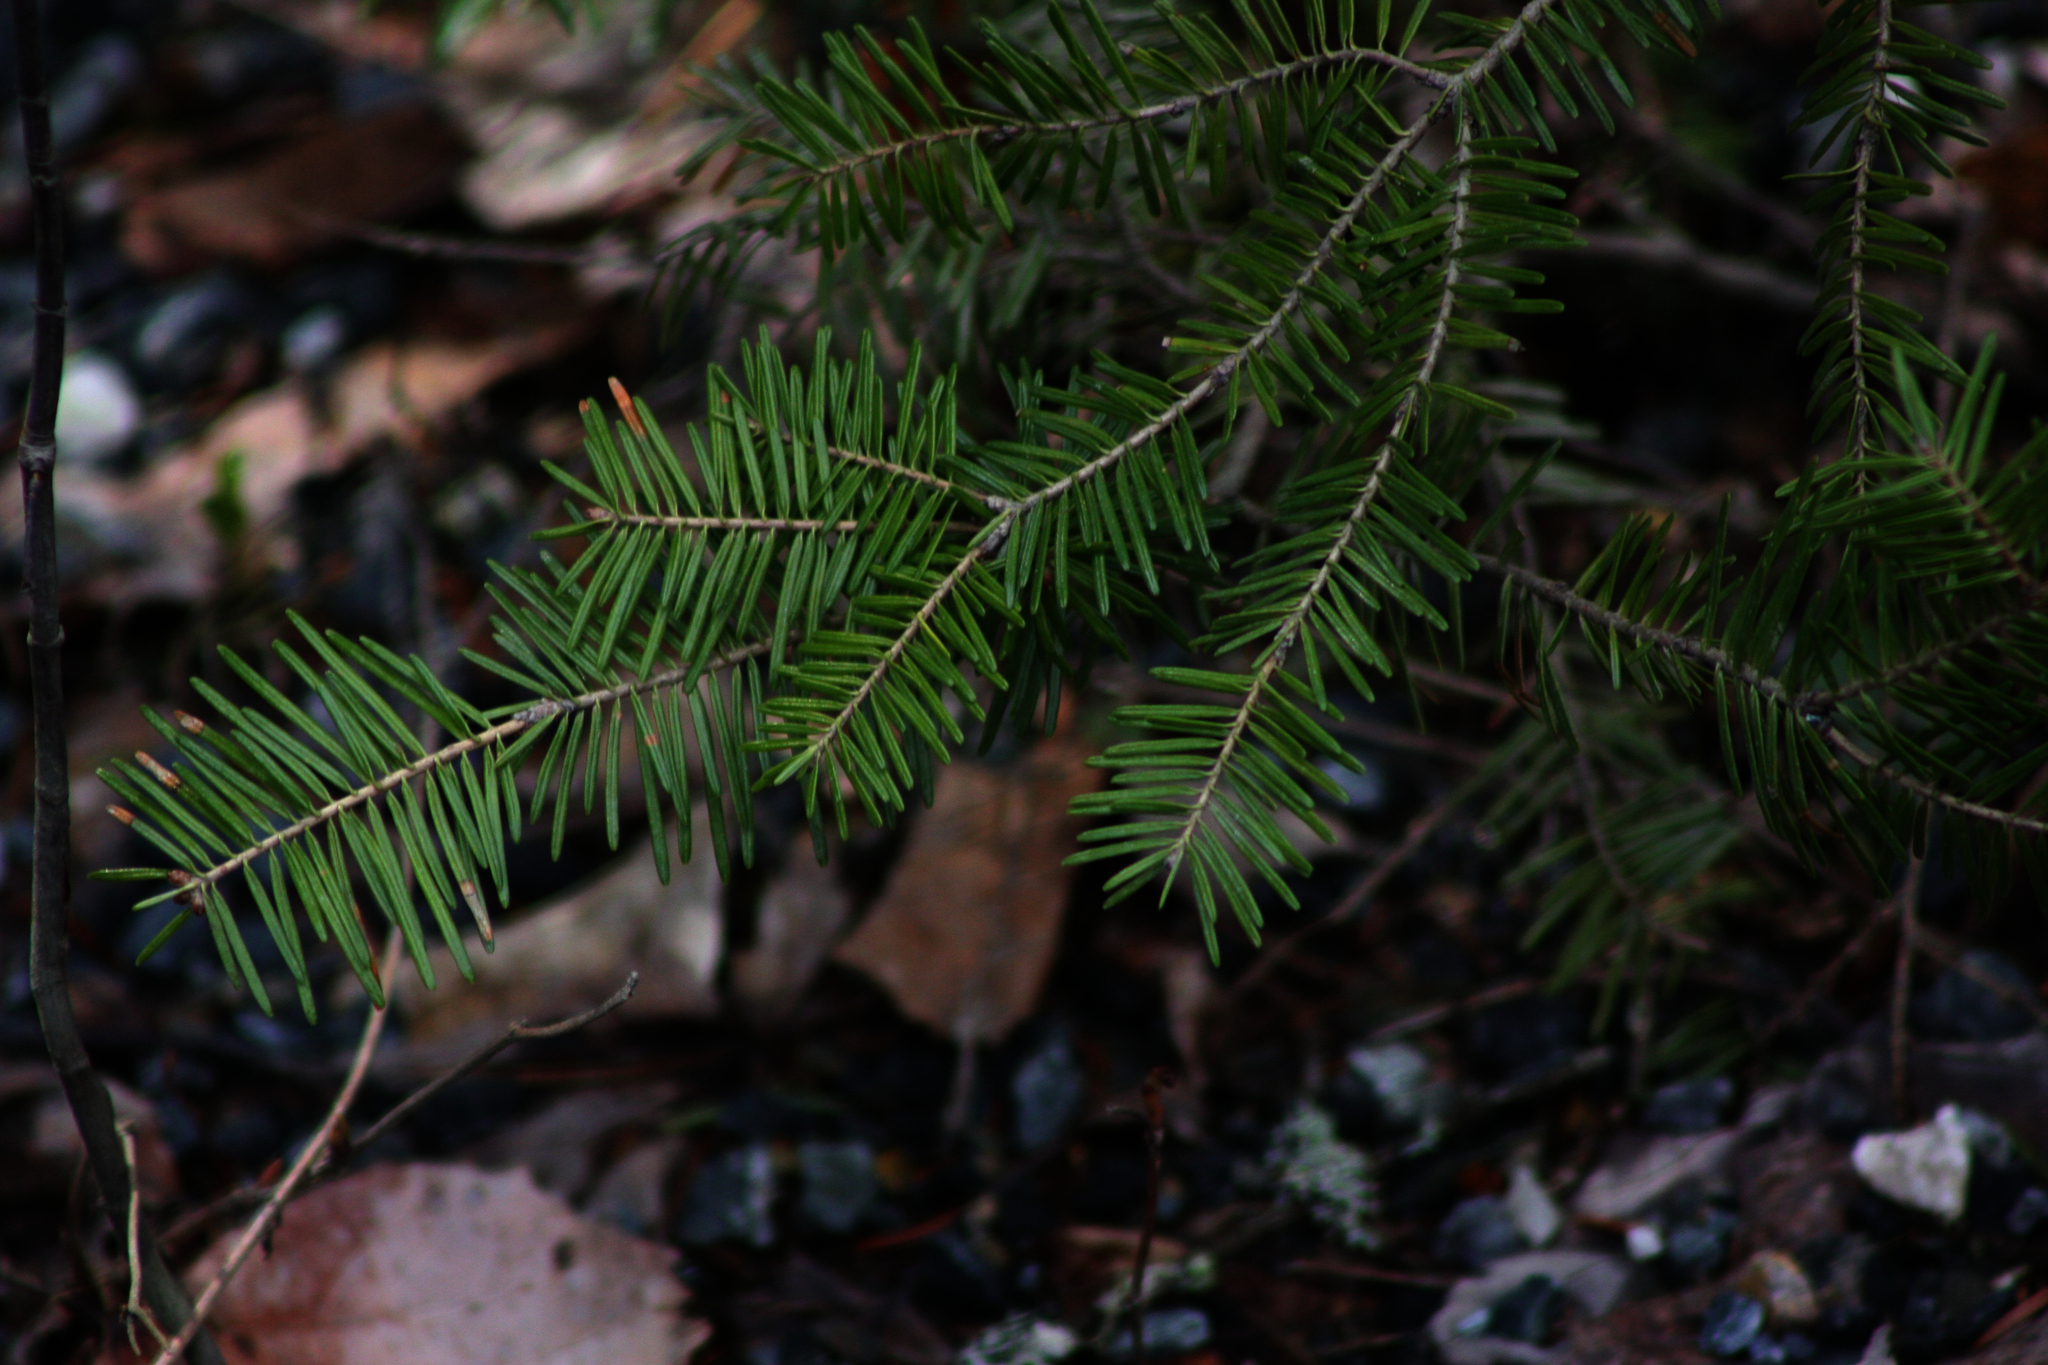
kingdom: Plantae
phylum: Tracheophyta
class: Pinopsida
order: Pinales
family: Pinaceae
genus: Abies
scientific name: Abies balsamea
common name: Balsam fir
